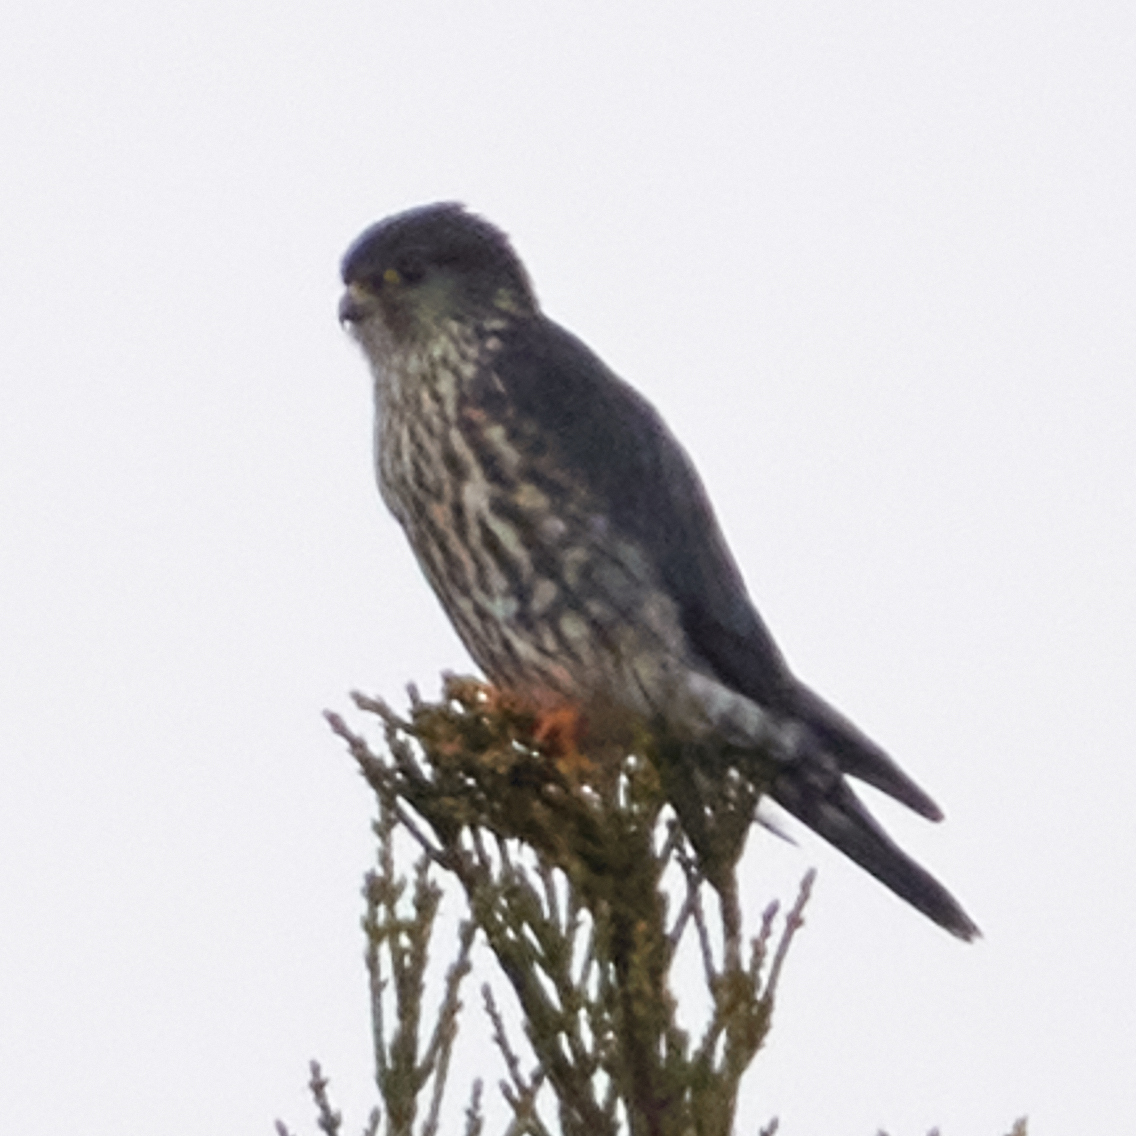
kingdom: Animalia
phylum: Chordata
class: Aves
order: Falconiformes
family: Falconidae
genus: Falco
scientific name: Falco columbarius
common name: Merlin
